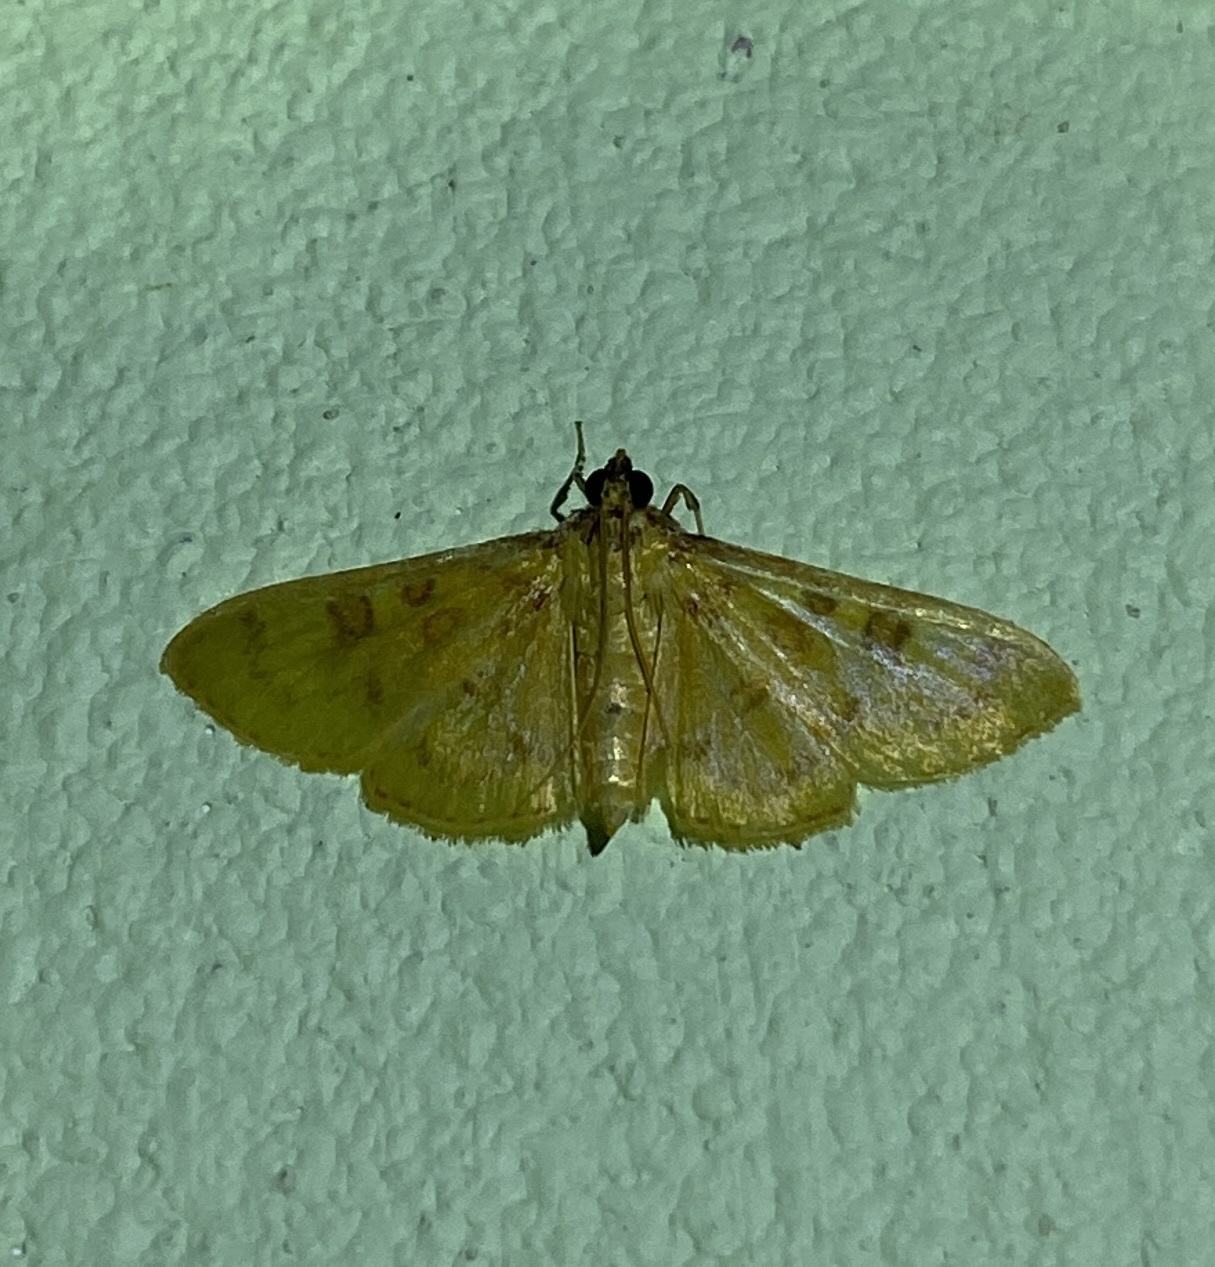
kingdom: Animalia
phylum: Arthropoda
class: Insecta
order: Lepidoptera
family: Crambidae
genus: Trithyris
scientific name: Trithyris
